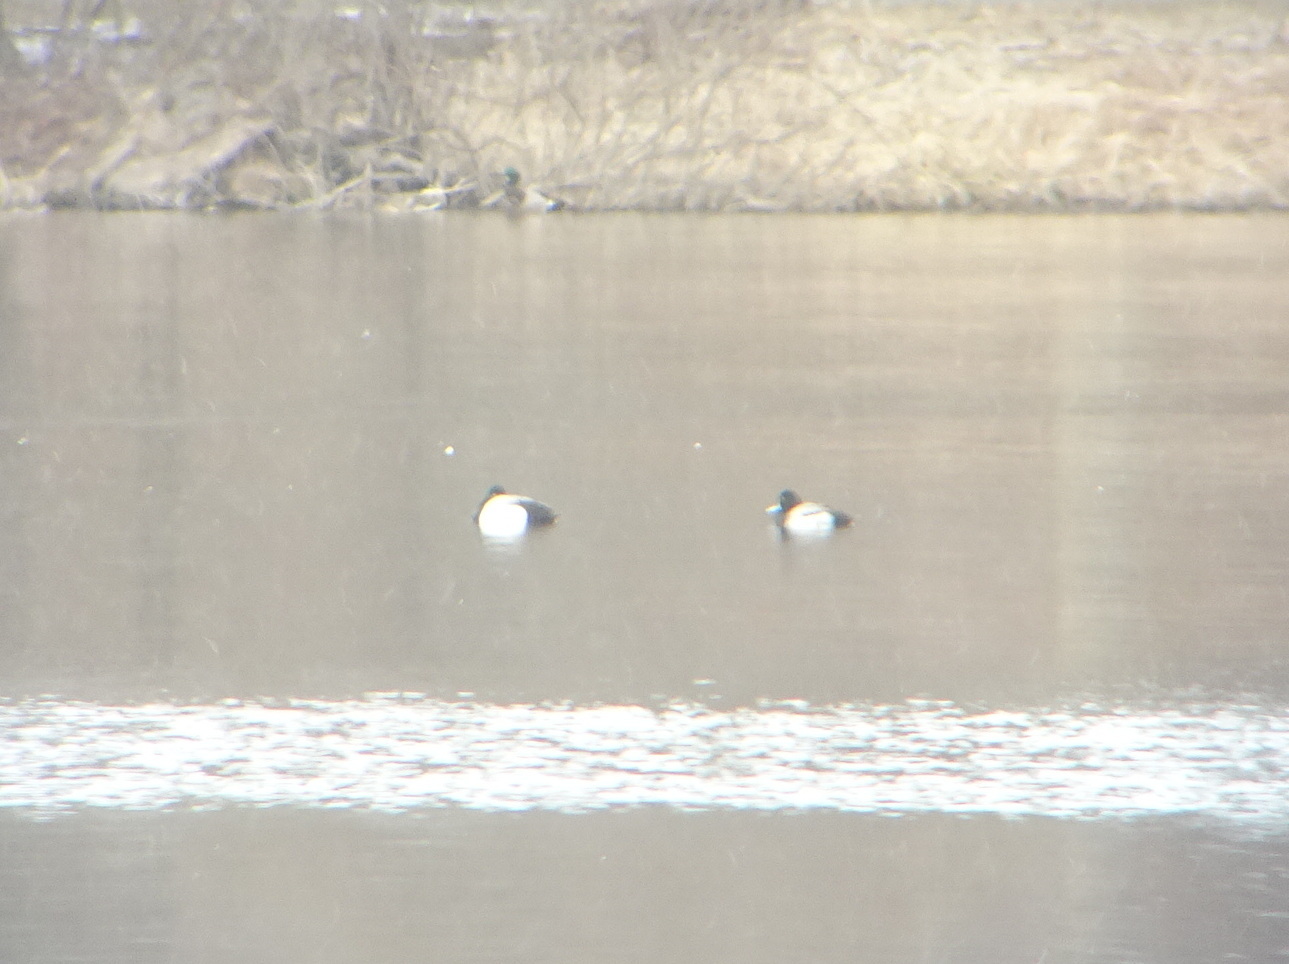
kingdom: Animalia
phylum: Chordata
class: Aves
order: Anseriformes
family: Anatidae
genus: Aythya
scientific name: Aythya marila
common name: Greater scaup
